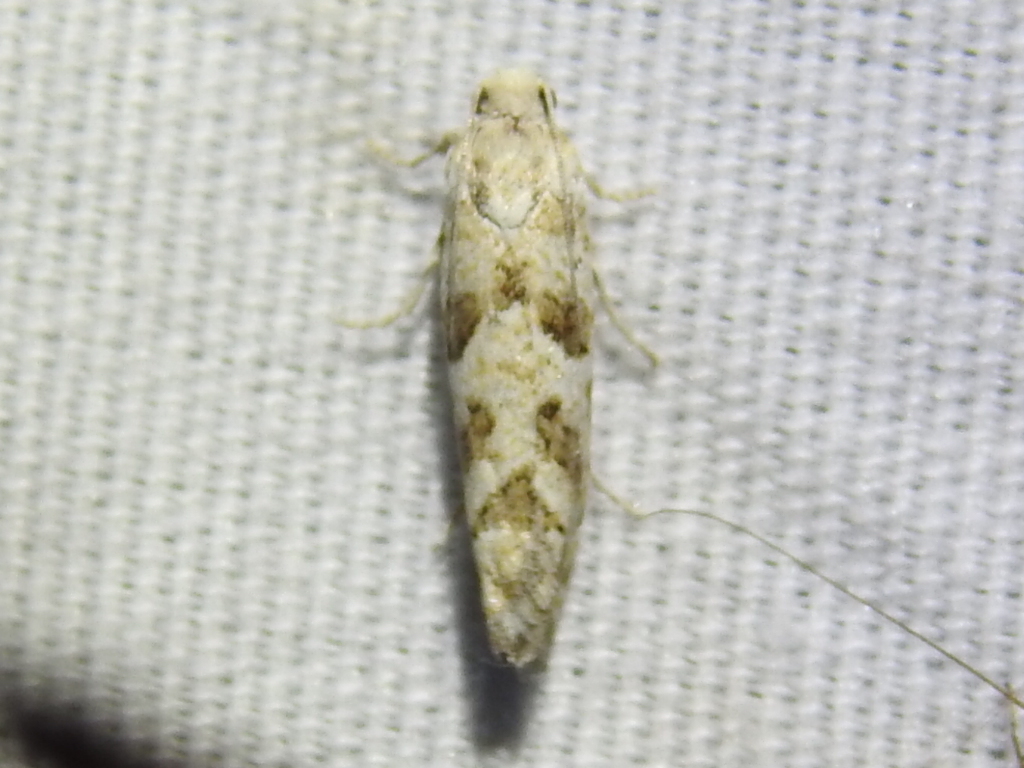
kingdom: Animalia
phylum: Arthropoda
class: Insecta
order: Lepidoptera
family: Tortricidae
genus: Pelochrista
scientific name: Pelochrista reversana
